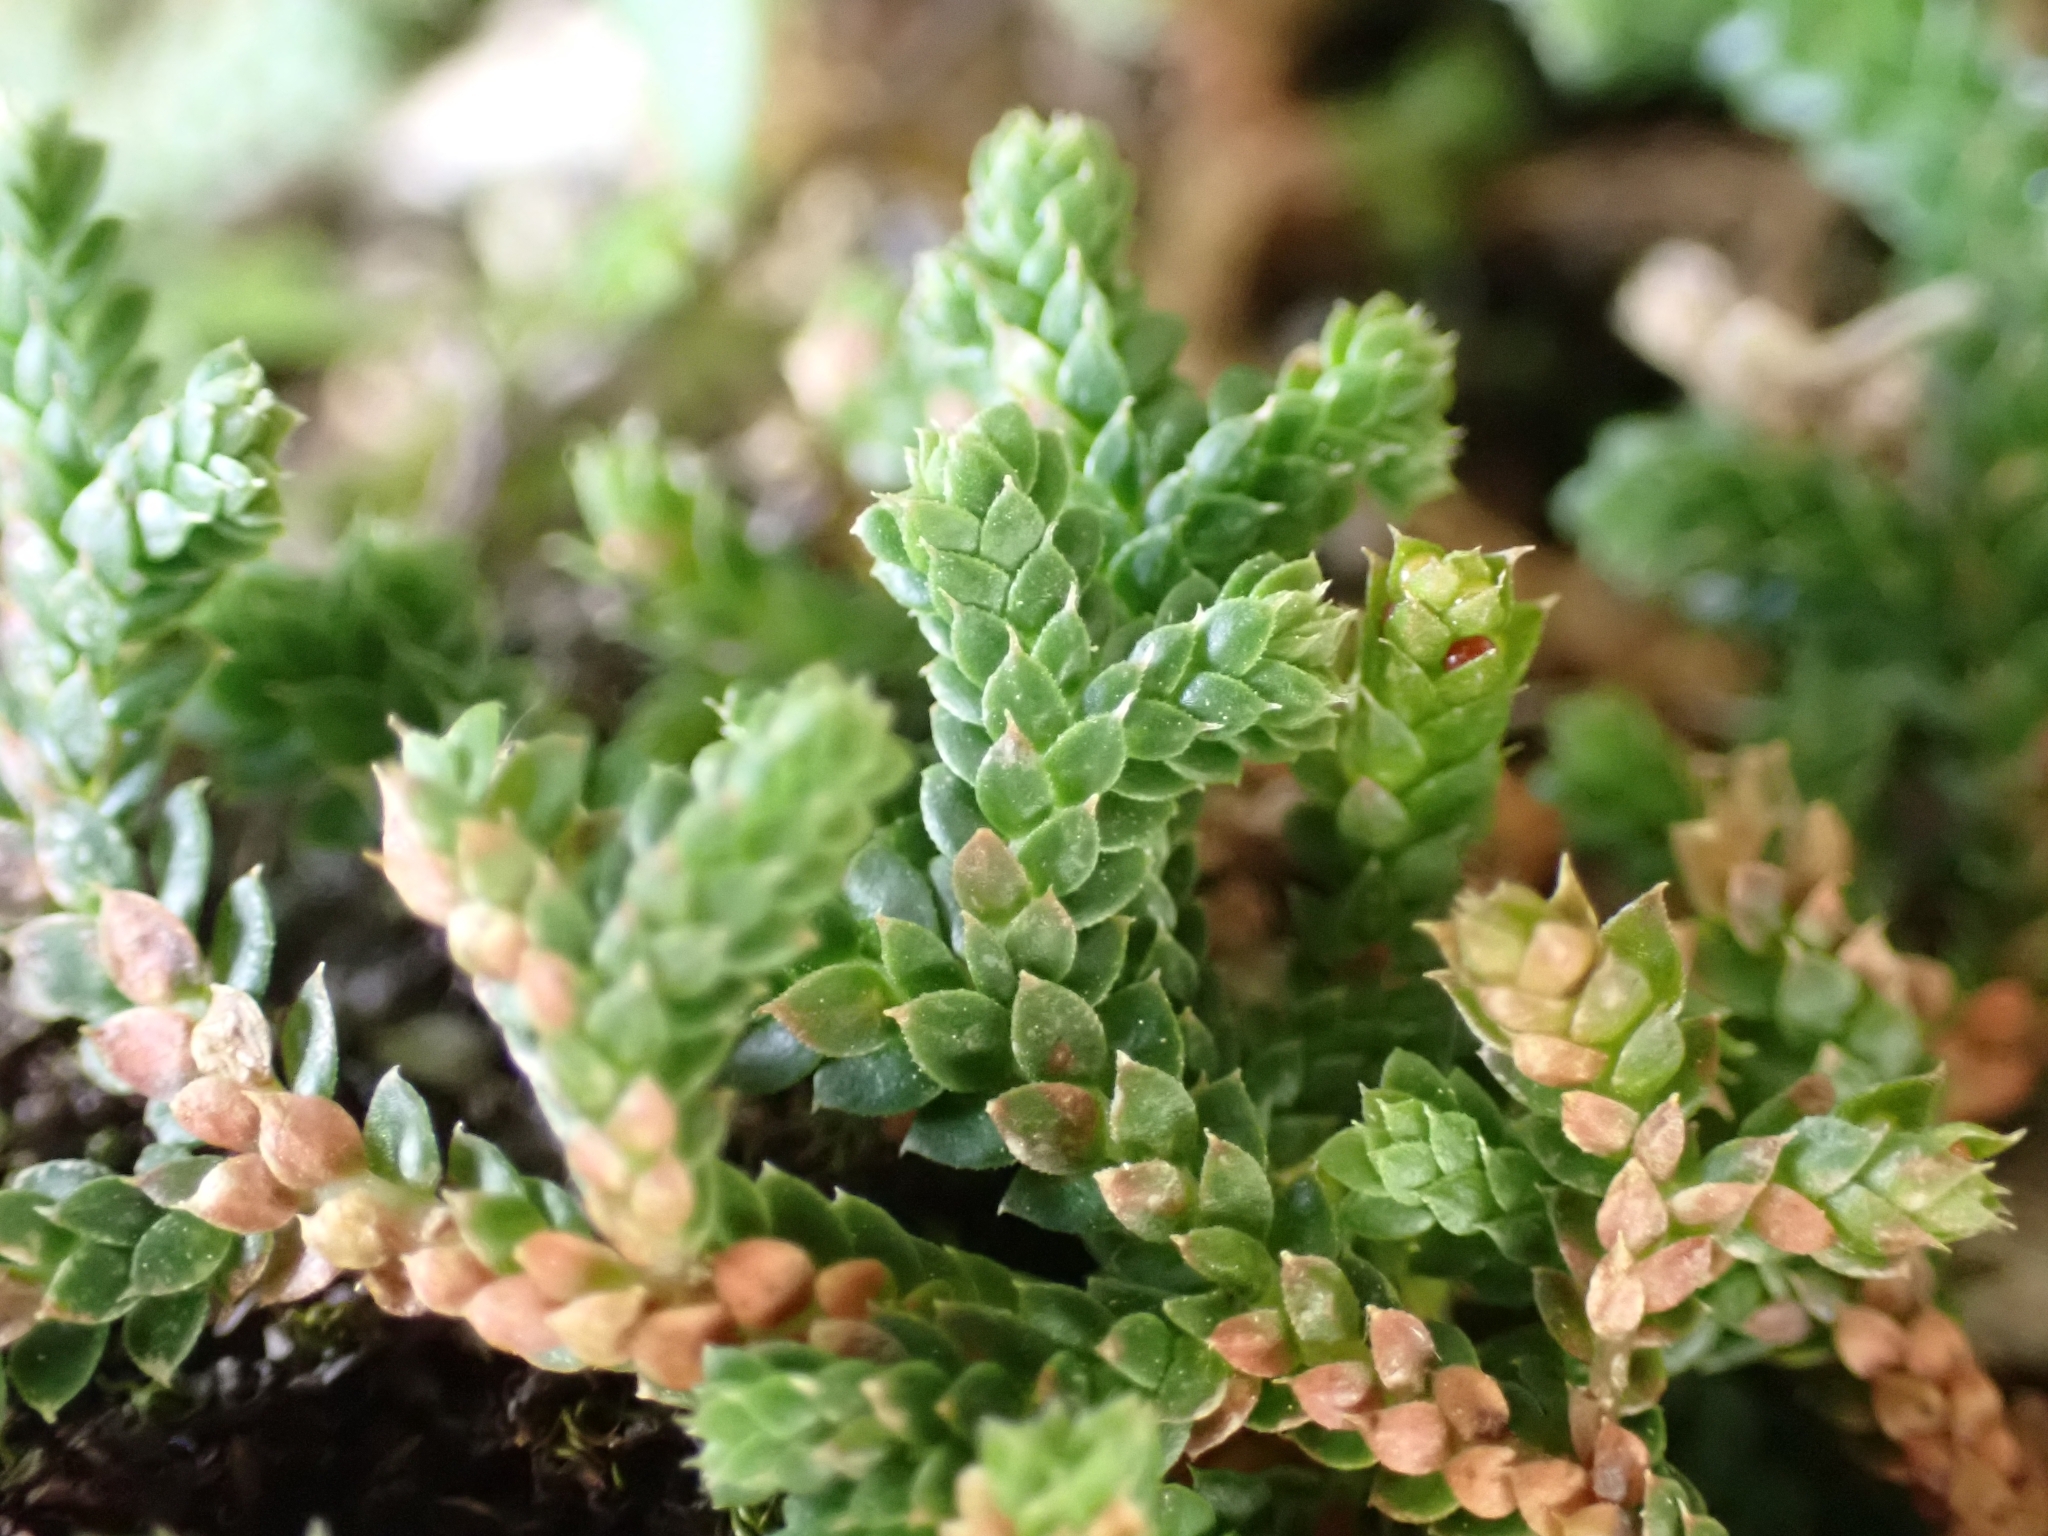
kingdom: Plantae
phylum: Tracheophyta
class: Lycopodiopsida
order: Selaginellales
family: Selaginellaceae
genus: Selaginella
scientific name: Selaginella denticulata
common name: Toothed-leaved clubmoss
